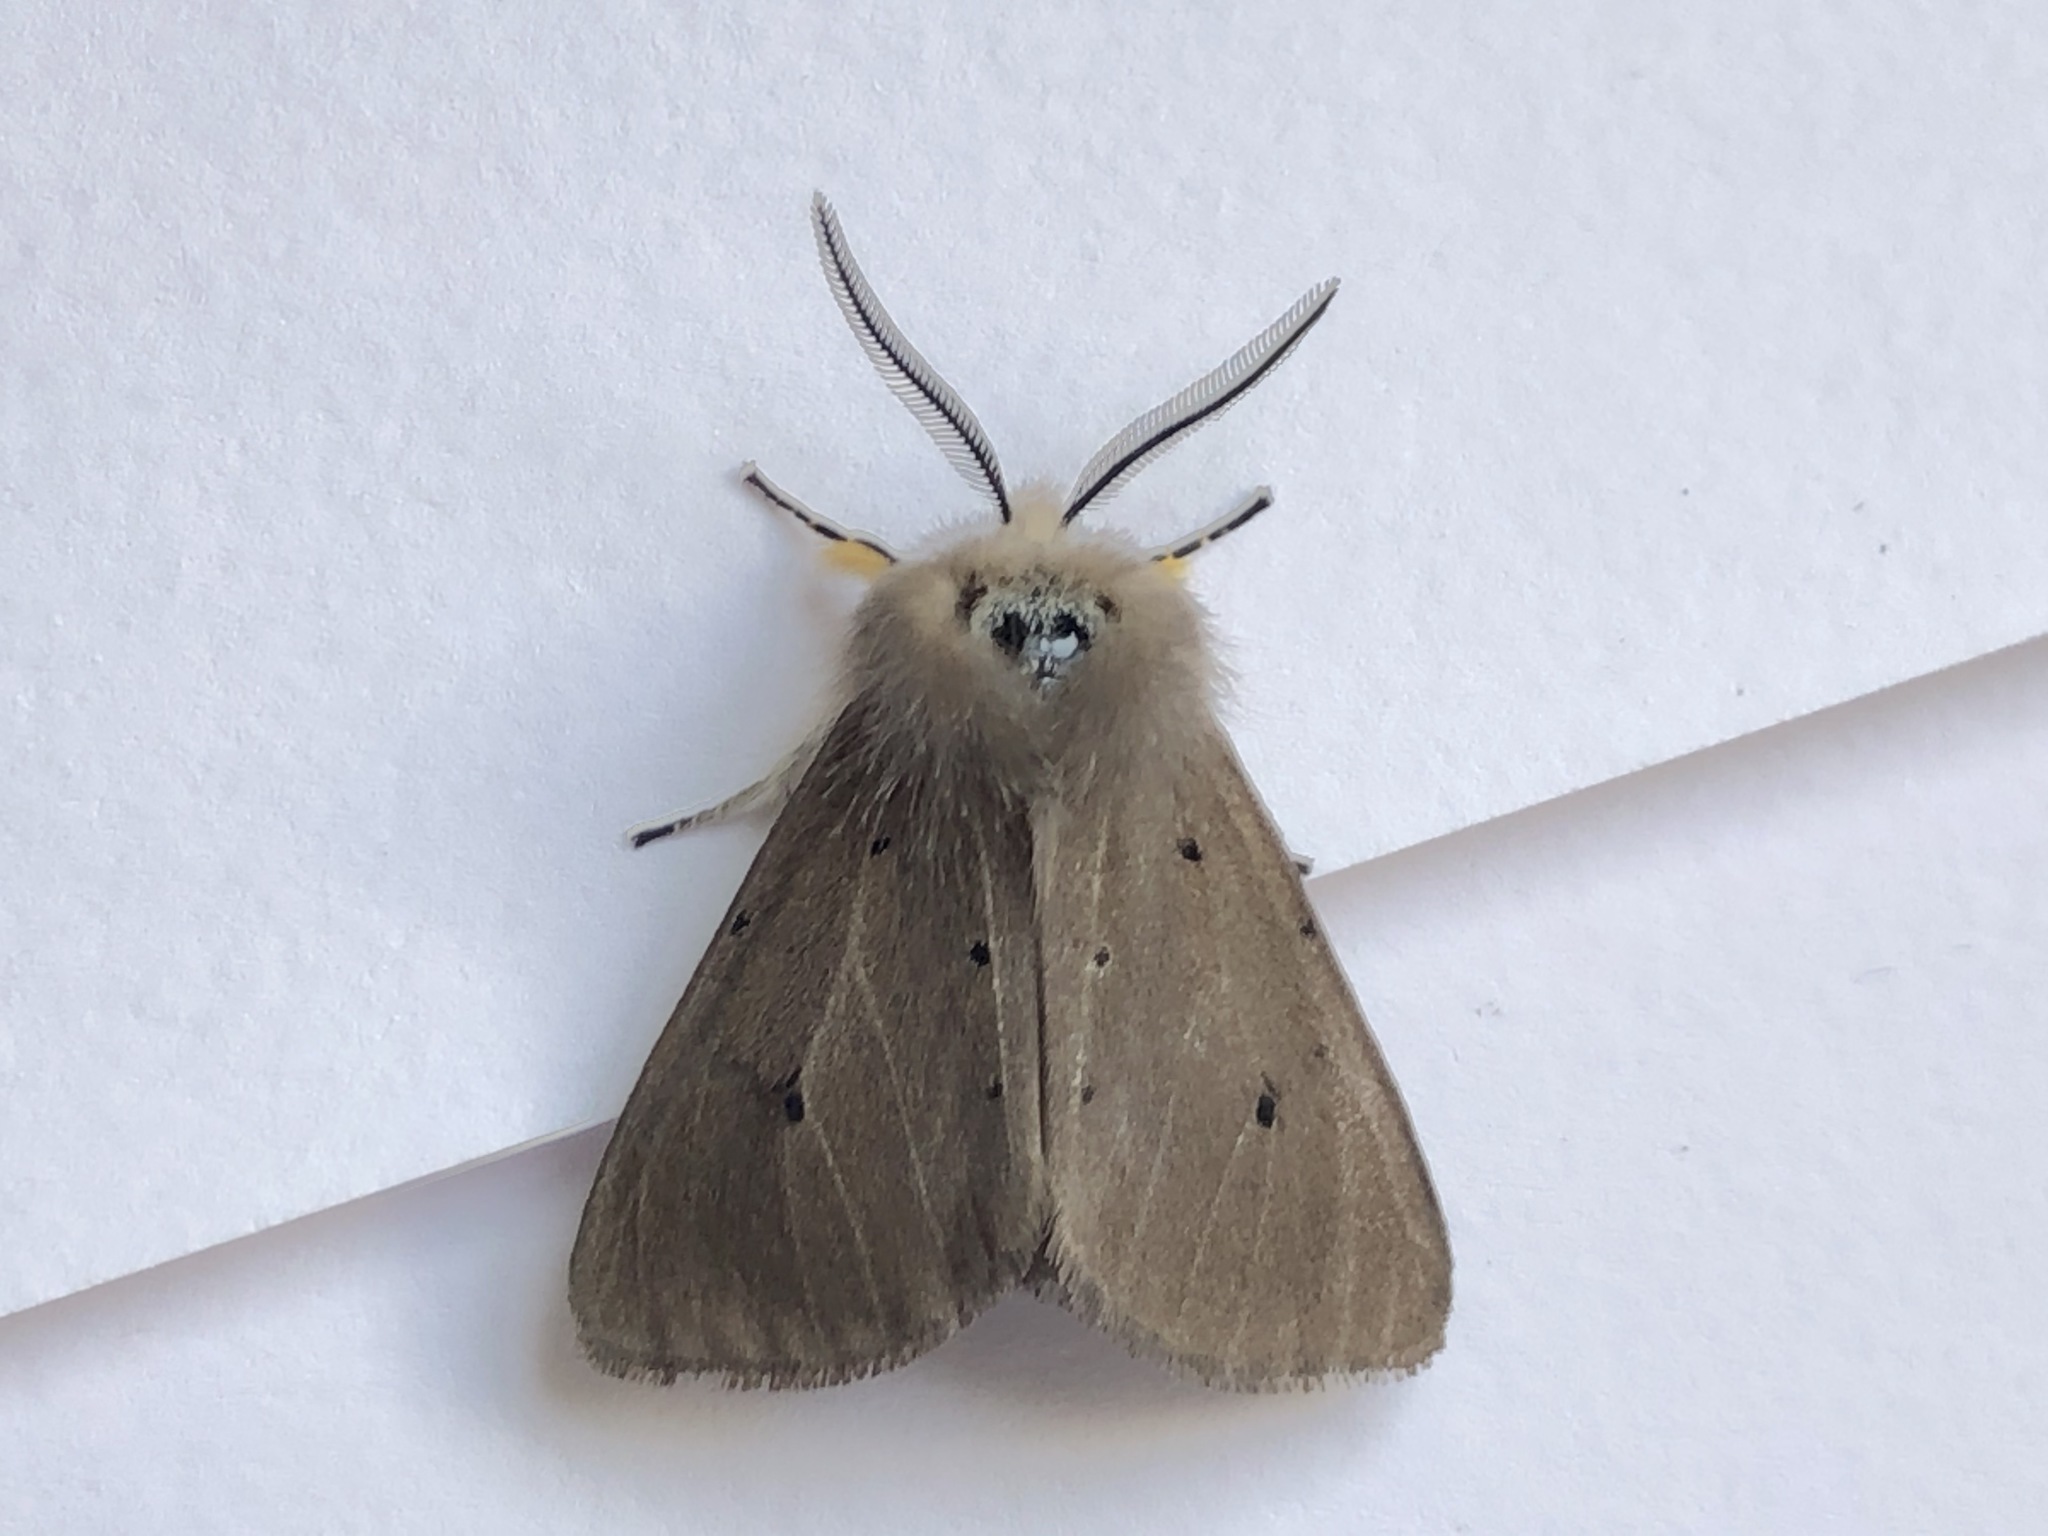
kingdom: Animalia
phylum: Arthropoda
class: Insecta
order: Lepidoptera
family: Erebidae
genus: Diaphora
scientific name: Diaphora mendica
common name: Muslin moth
